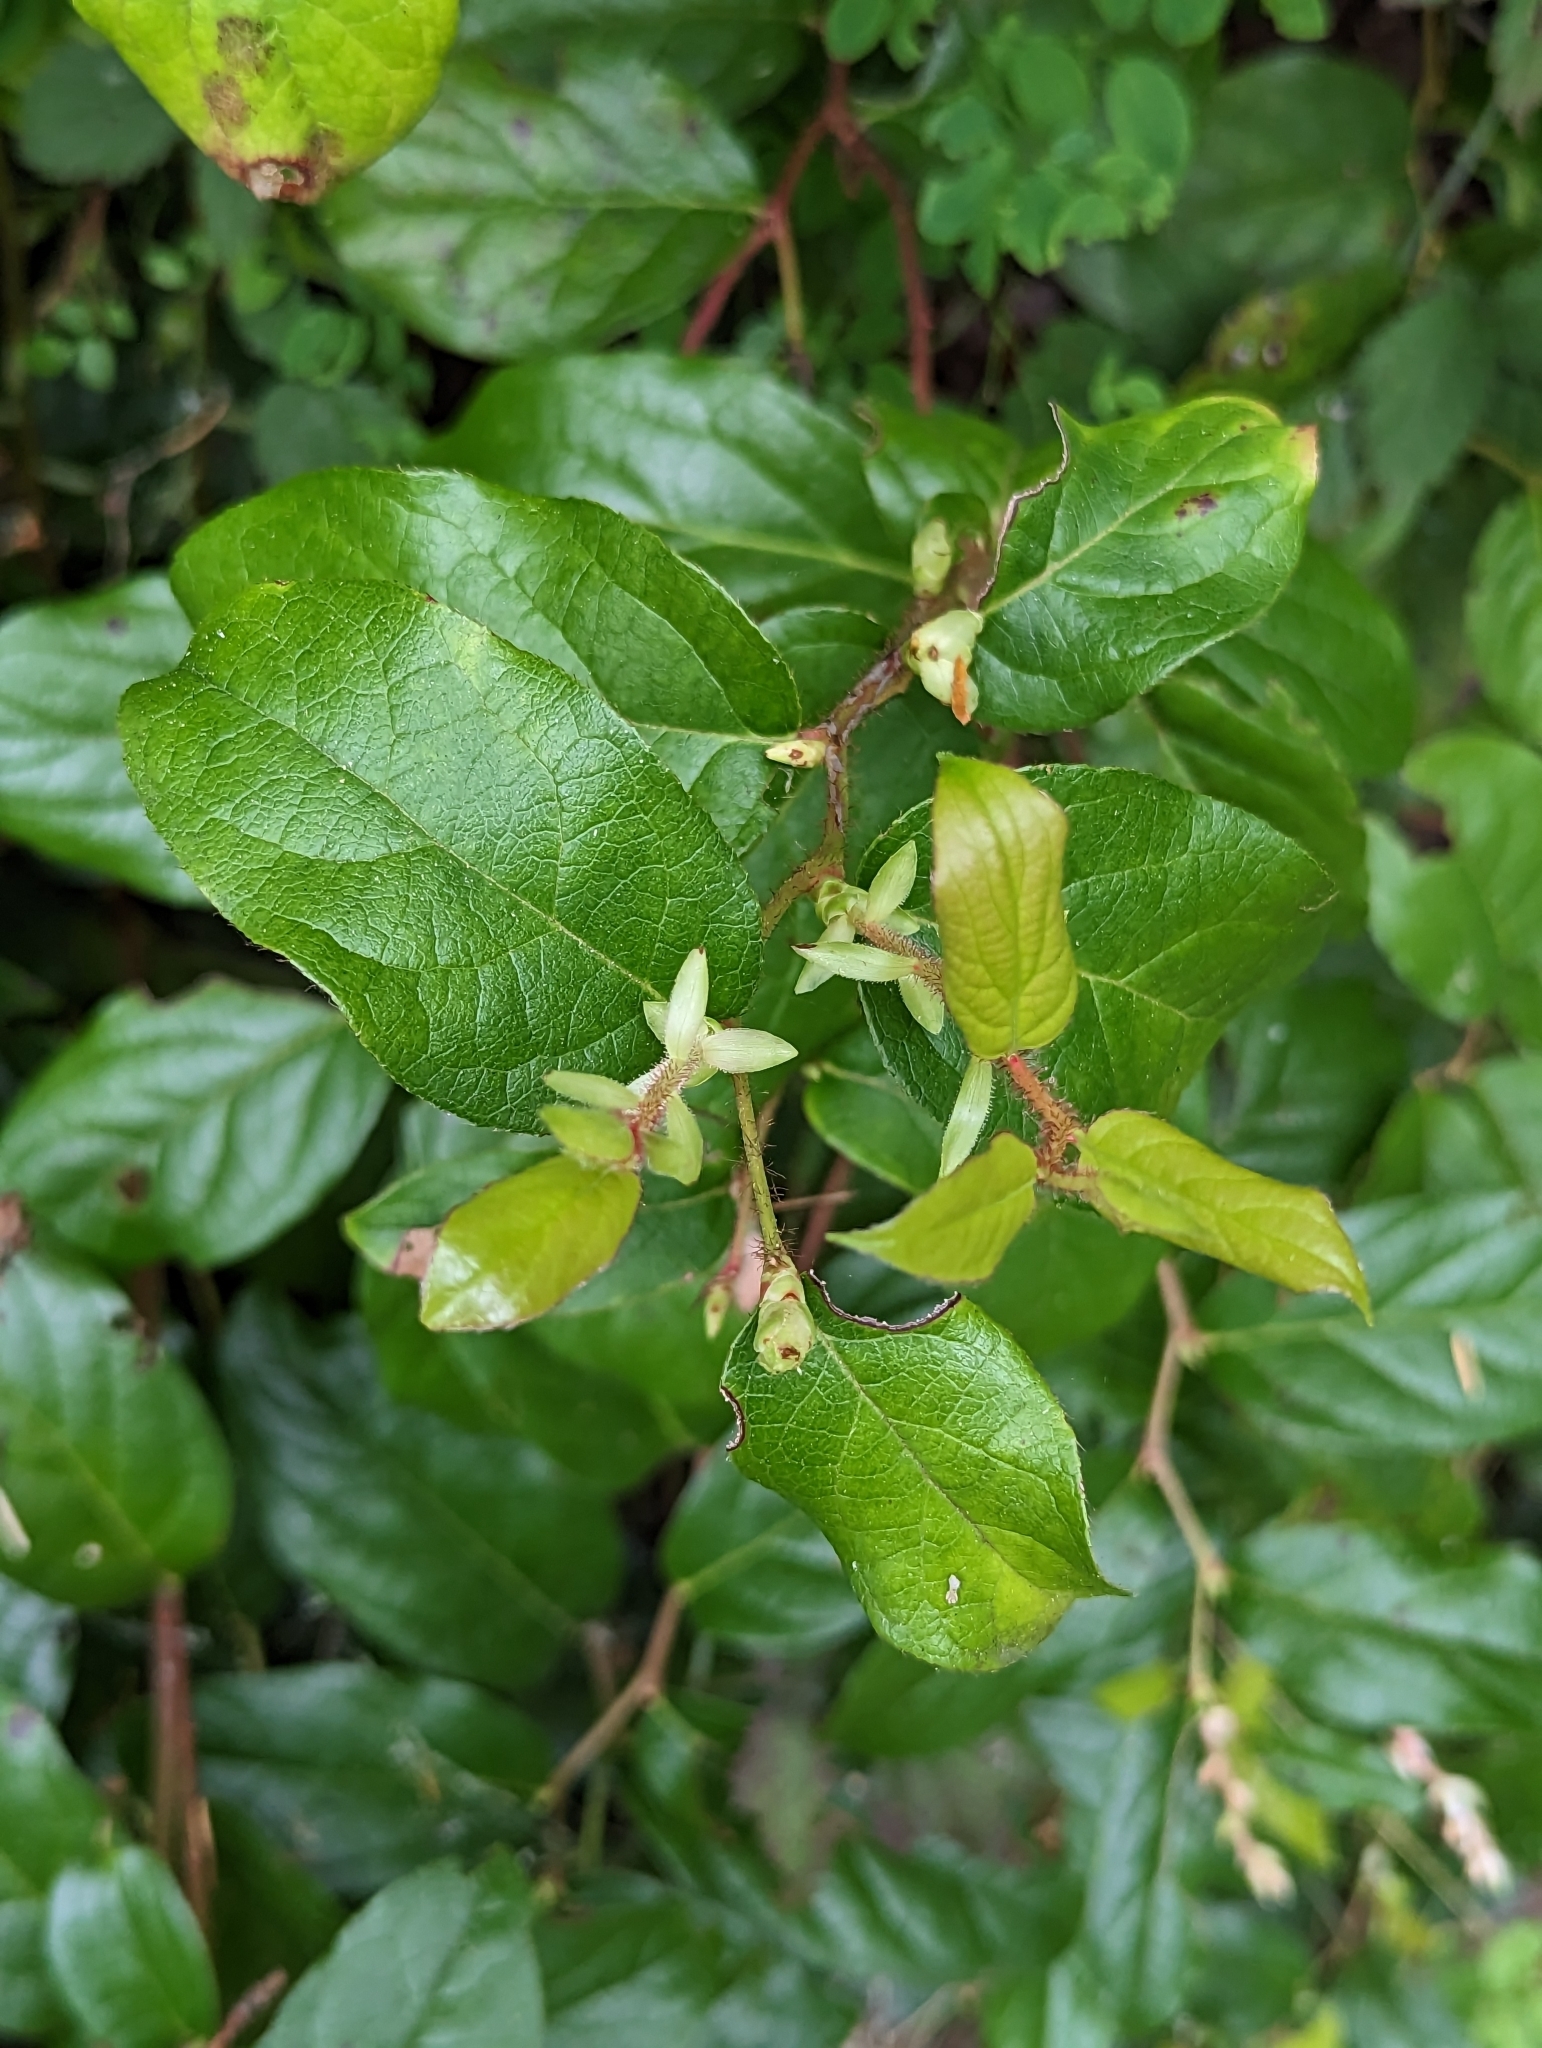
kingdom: Plantae
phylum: Tracheophyta
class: Magnoliopsida
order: Ericales
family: Ericaceae
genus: Gaultheria
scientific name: Gaultheria shallon
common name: Shallon
